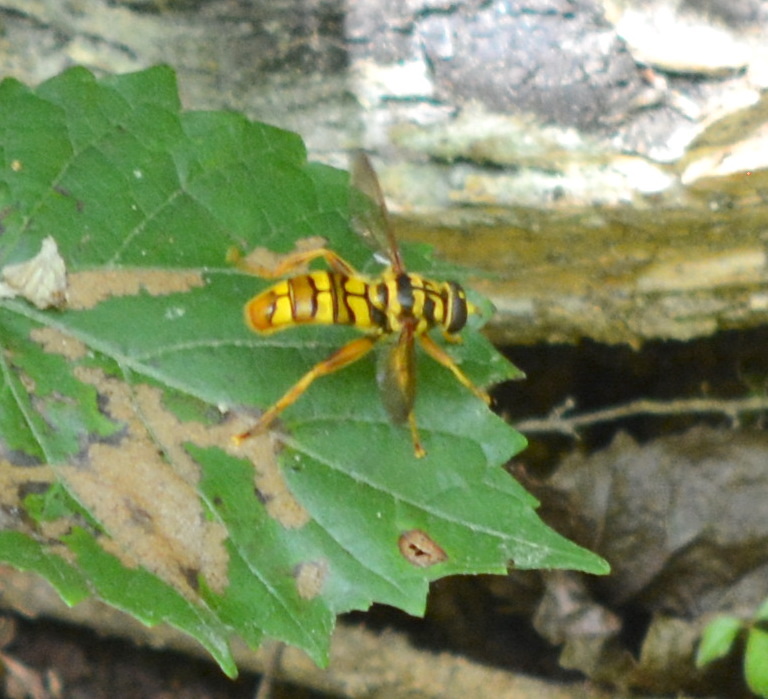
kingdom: Animalia
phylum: Arthropoda
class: Insecta
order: Diptera
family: Syrphidae
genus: Milesia
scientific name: Milesia virginiensis
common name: Virginia giant
